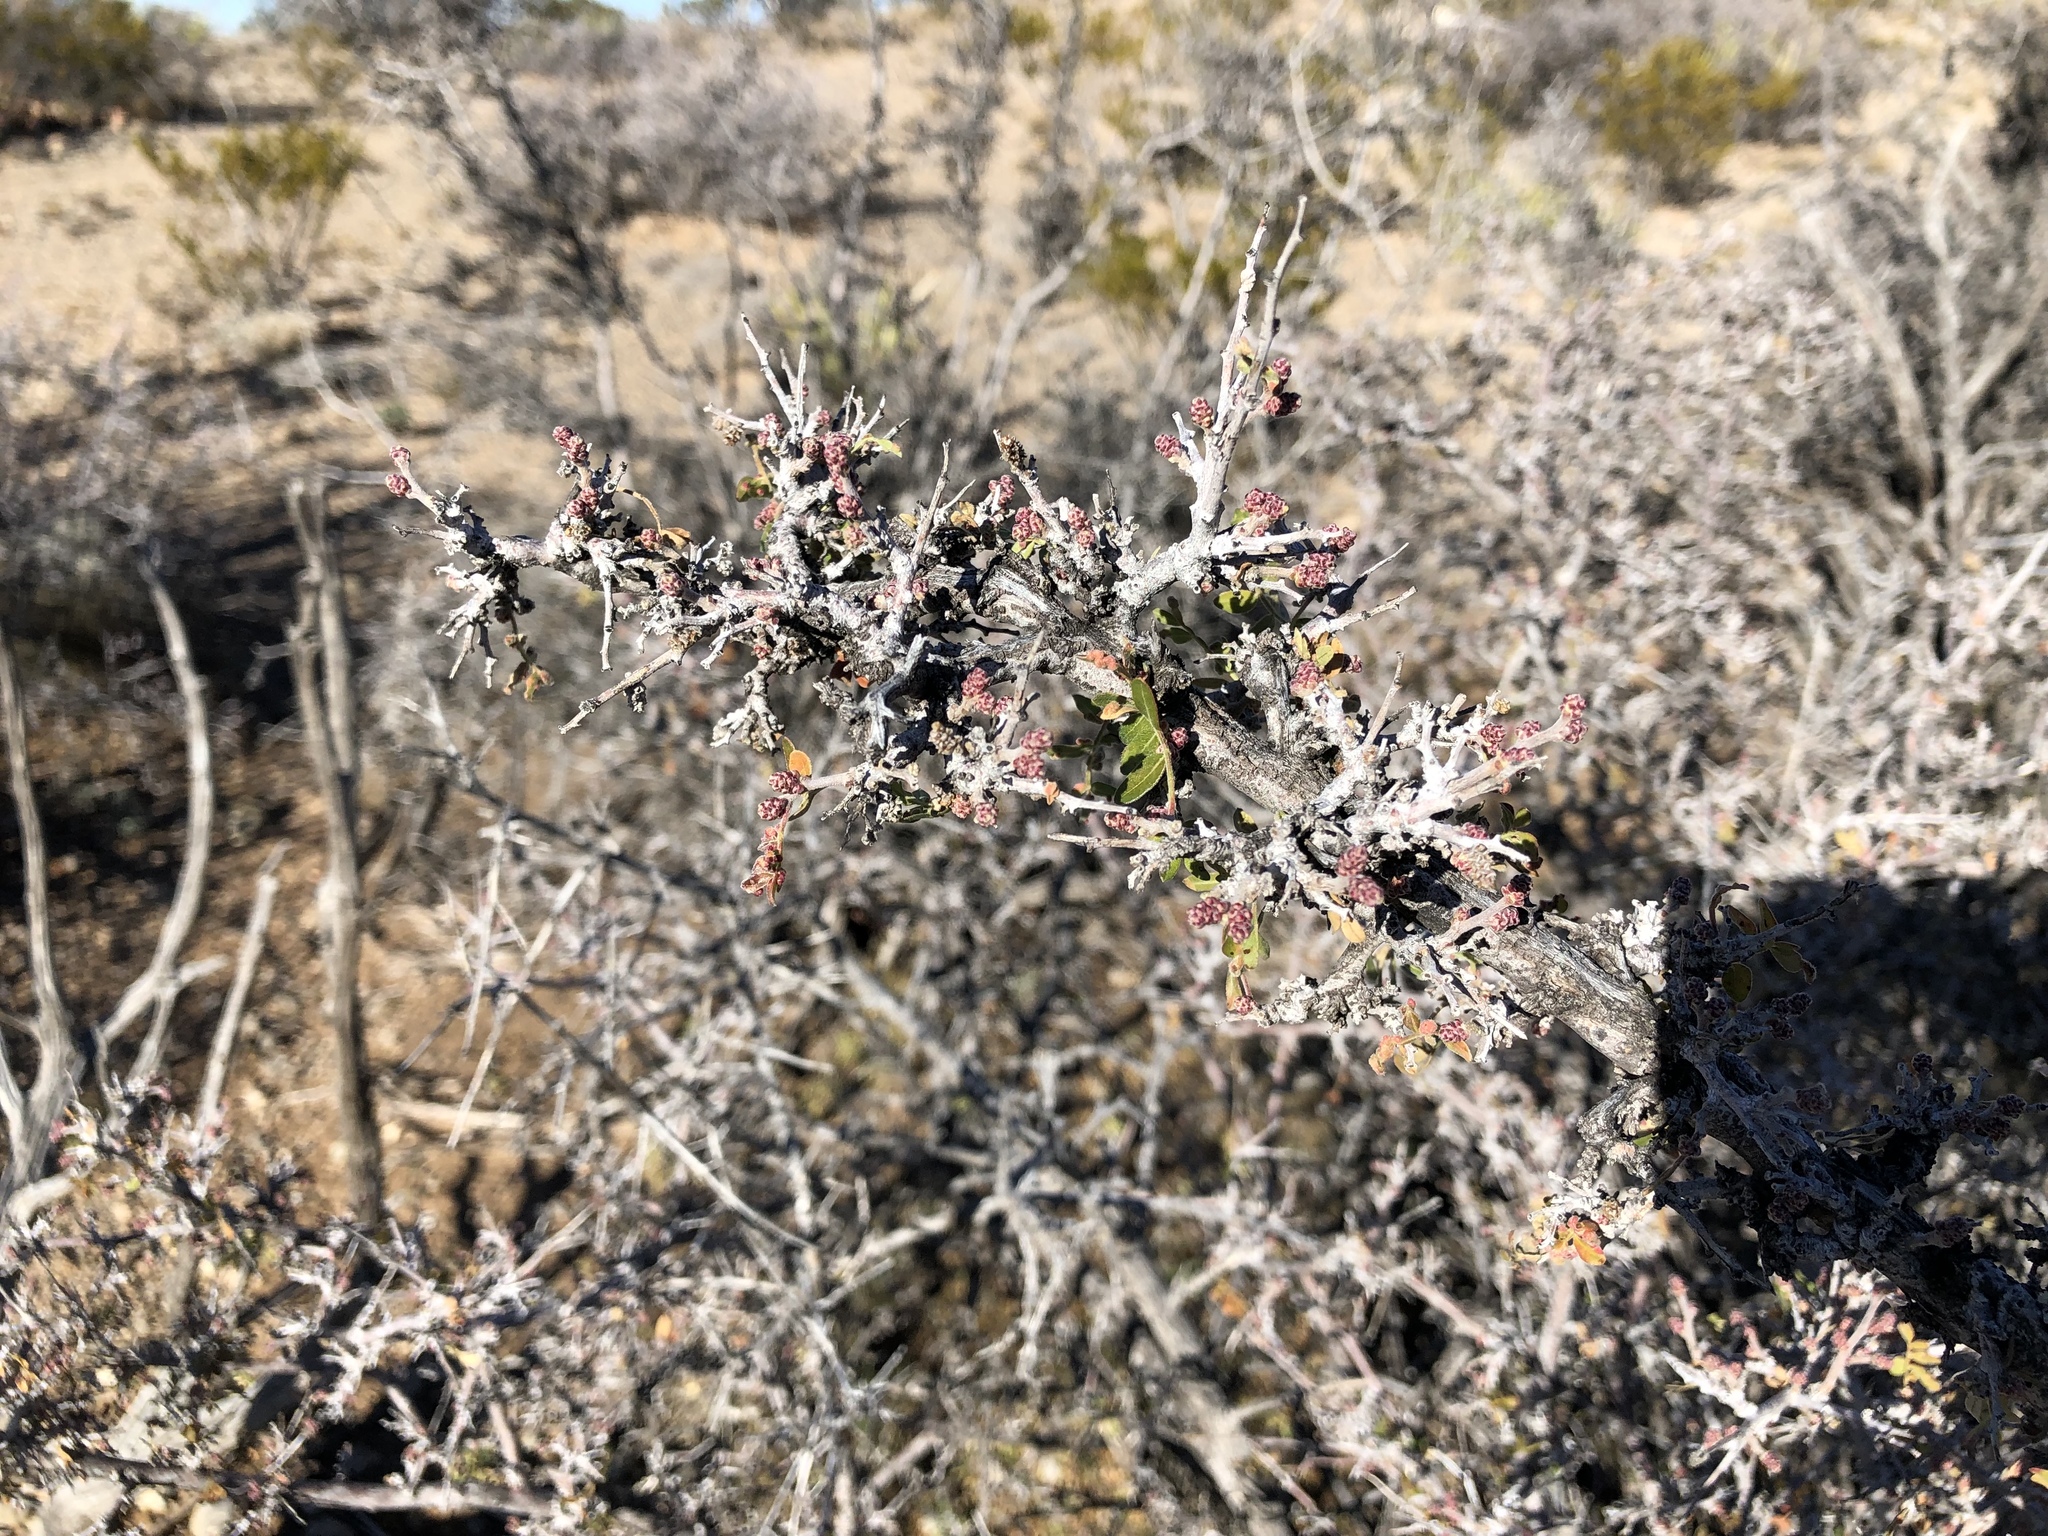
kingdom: Plantae
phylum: Tracheophyta
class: Magnoliopsida
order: Sapindales
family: Anacardiaceae
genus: Rhus
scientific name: Rhus microphylla
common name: Desert sumac
